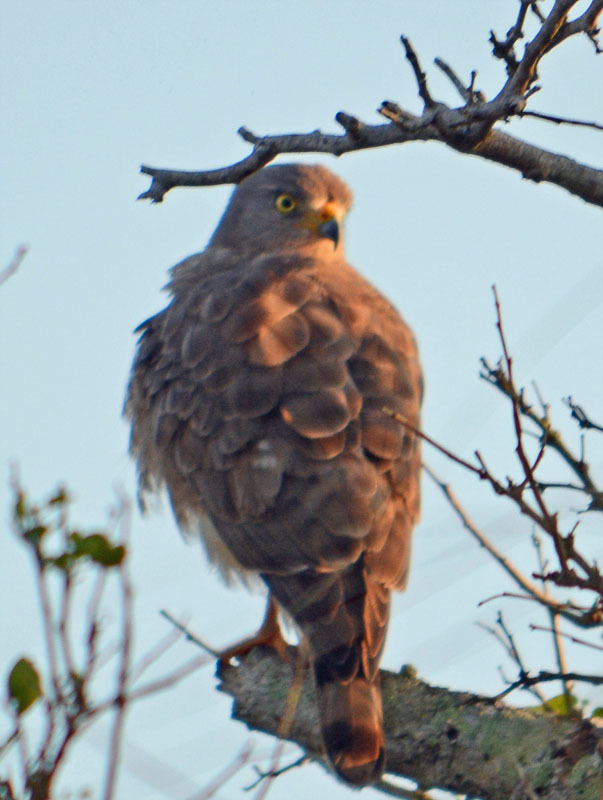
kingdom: Animalia
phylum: Chordata
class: Aves
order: Accipitriformes
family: Accipitridae
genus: Rupornis
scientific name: Rupornis magnirostris
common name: Roadside hawk
